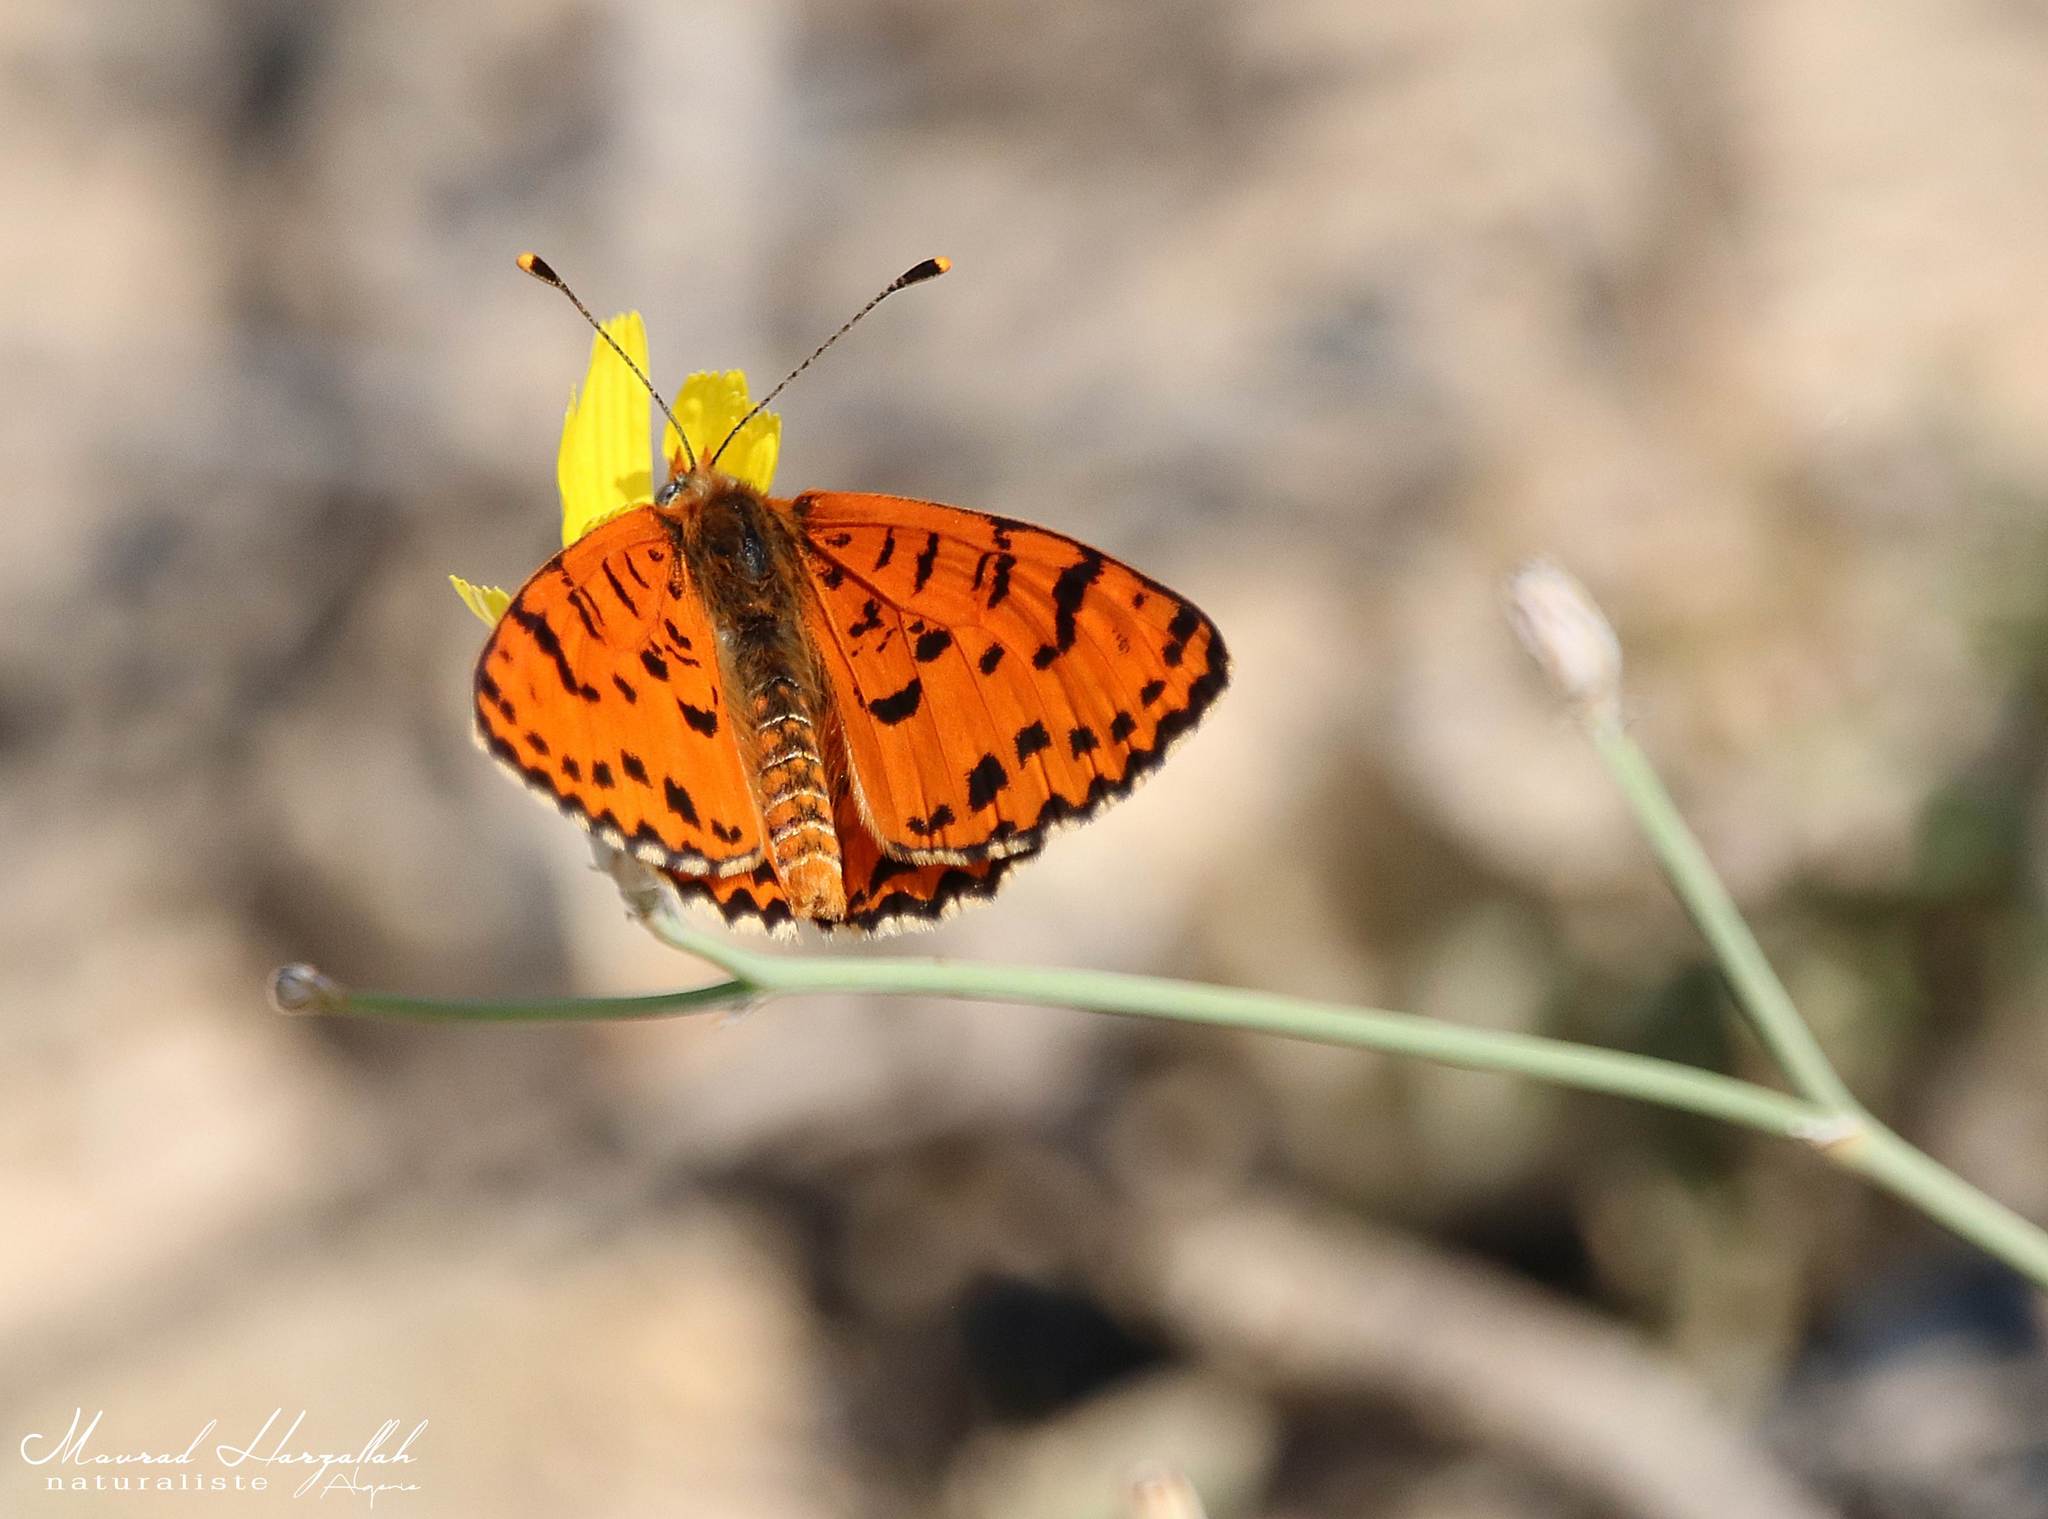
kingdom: Animalia
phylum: Arthropoda
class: Insecta
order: Lepidoptera
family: Nymphalidae
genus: Melitaea
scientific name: Melitaea didyma
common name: Spotted fritillary
